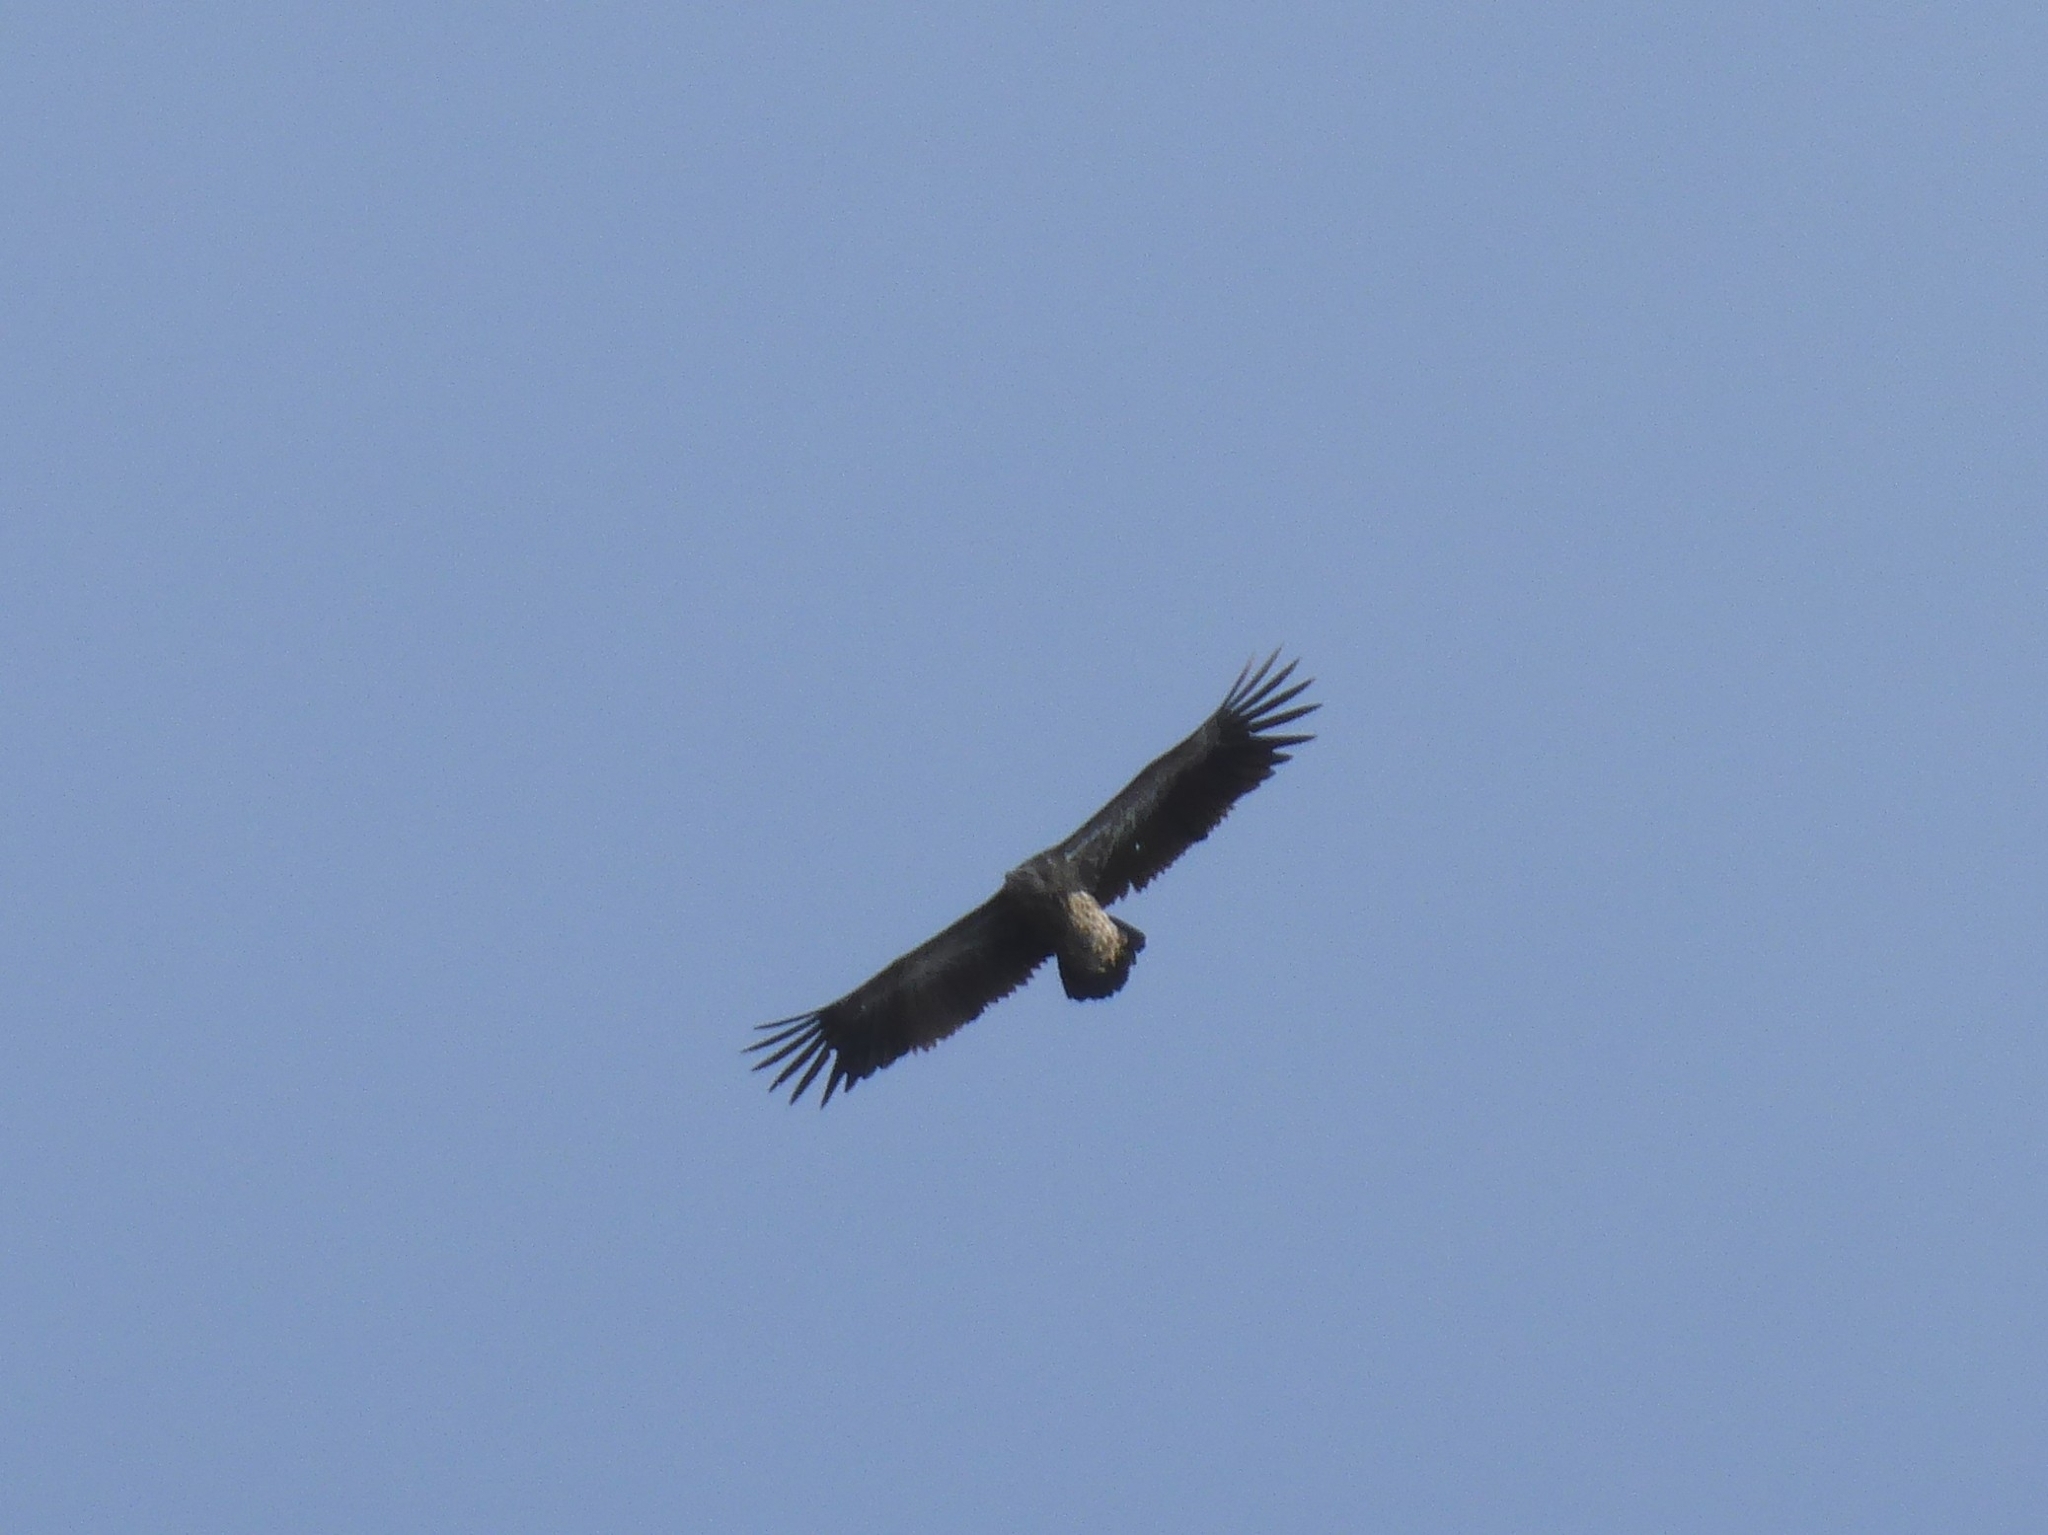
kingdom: Animalia
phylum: Chordata
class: Aves
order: Accipitriformes
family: Accipitridae
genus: Gyps
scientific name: Gyps himalayensis
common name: Himalayan griffon
